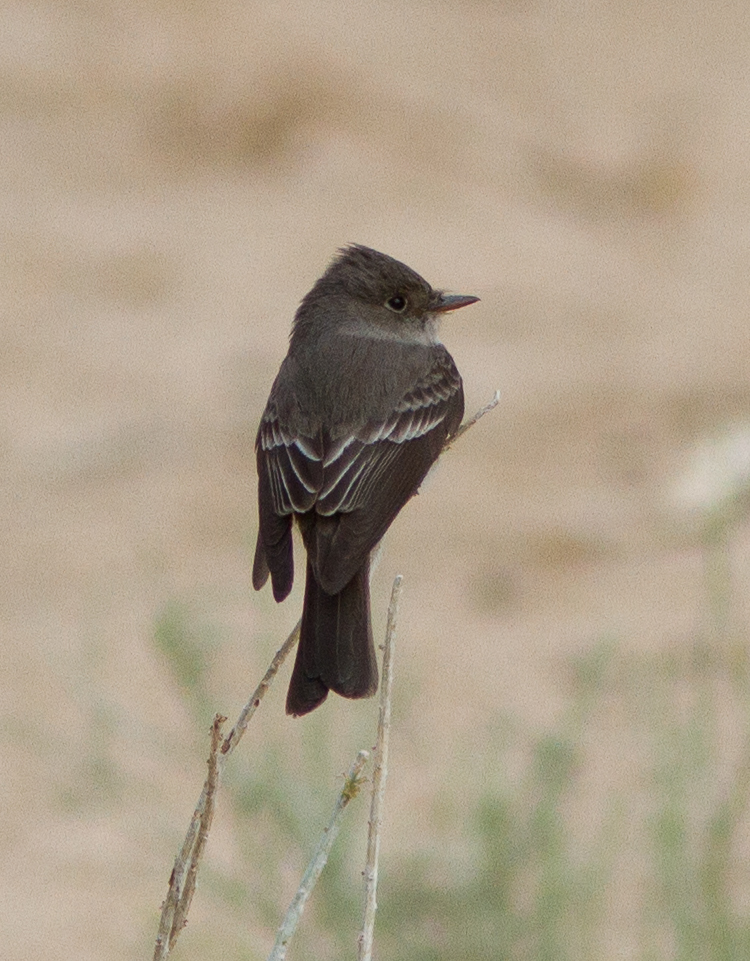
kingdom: Animalia
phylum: Chordata
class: Aves
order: Passeriformes
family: Tyrannidae
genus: Contopus
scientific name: Contopus sordidulus
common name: Western wood-pewee
